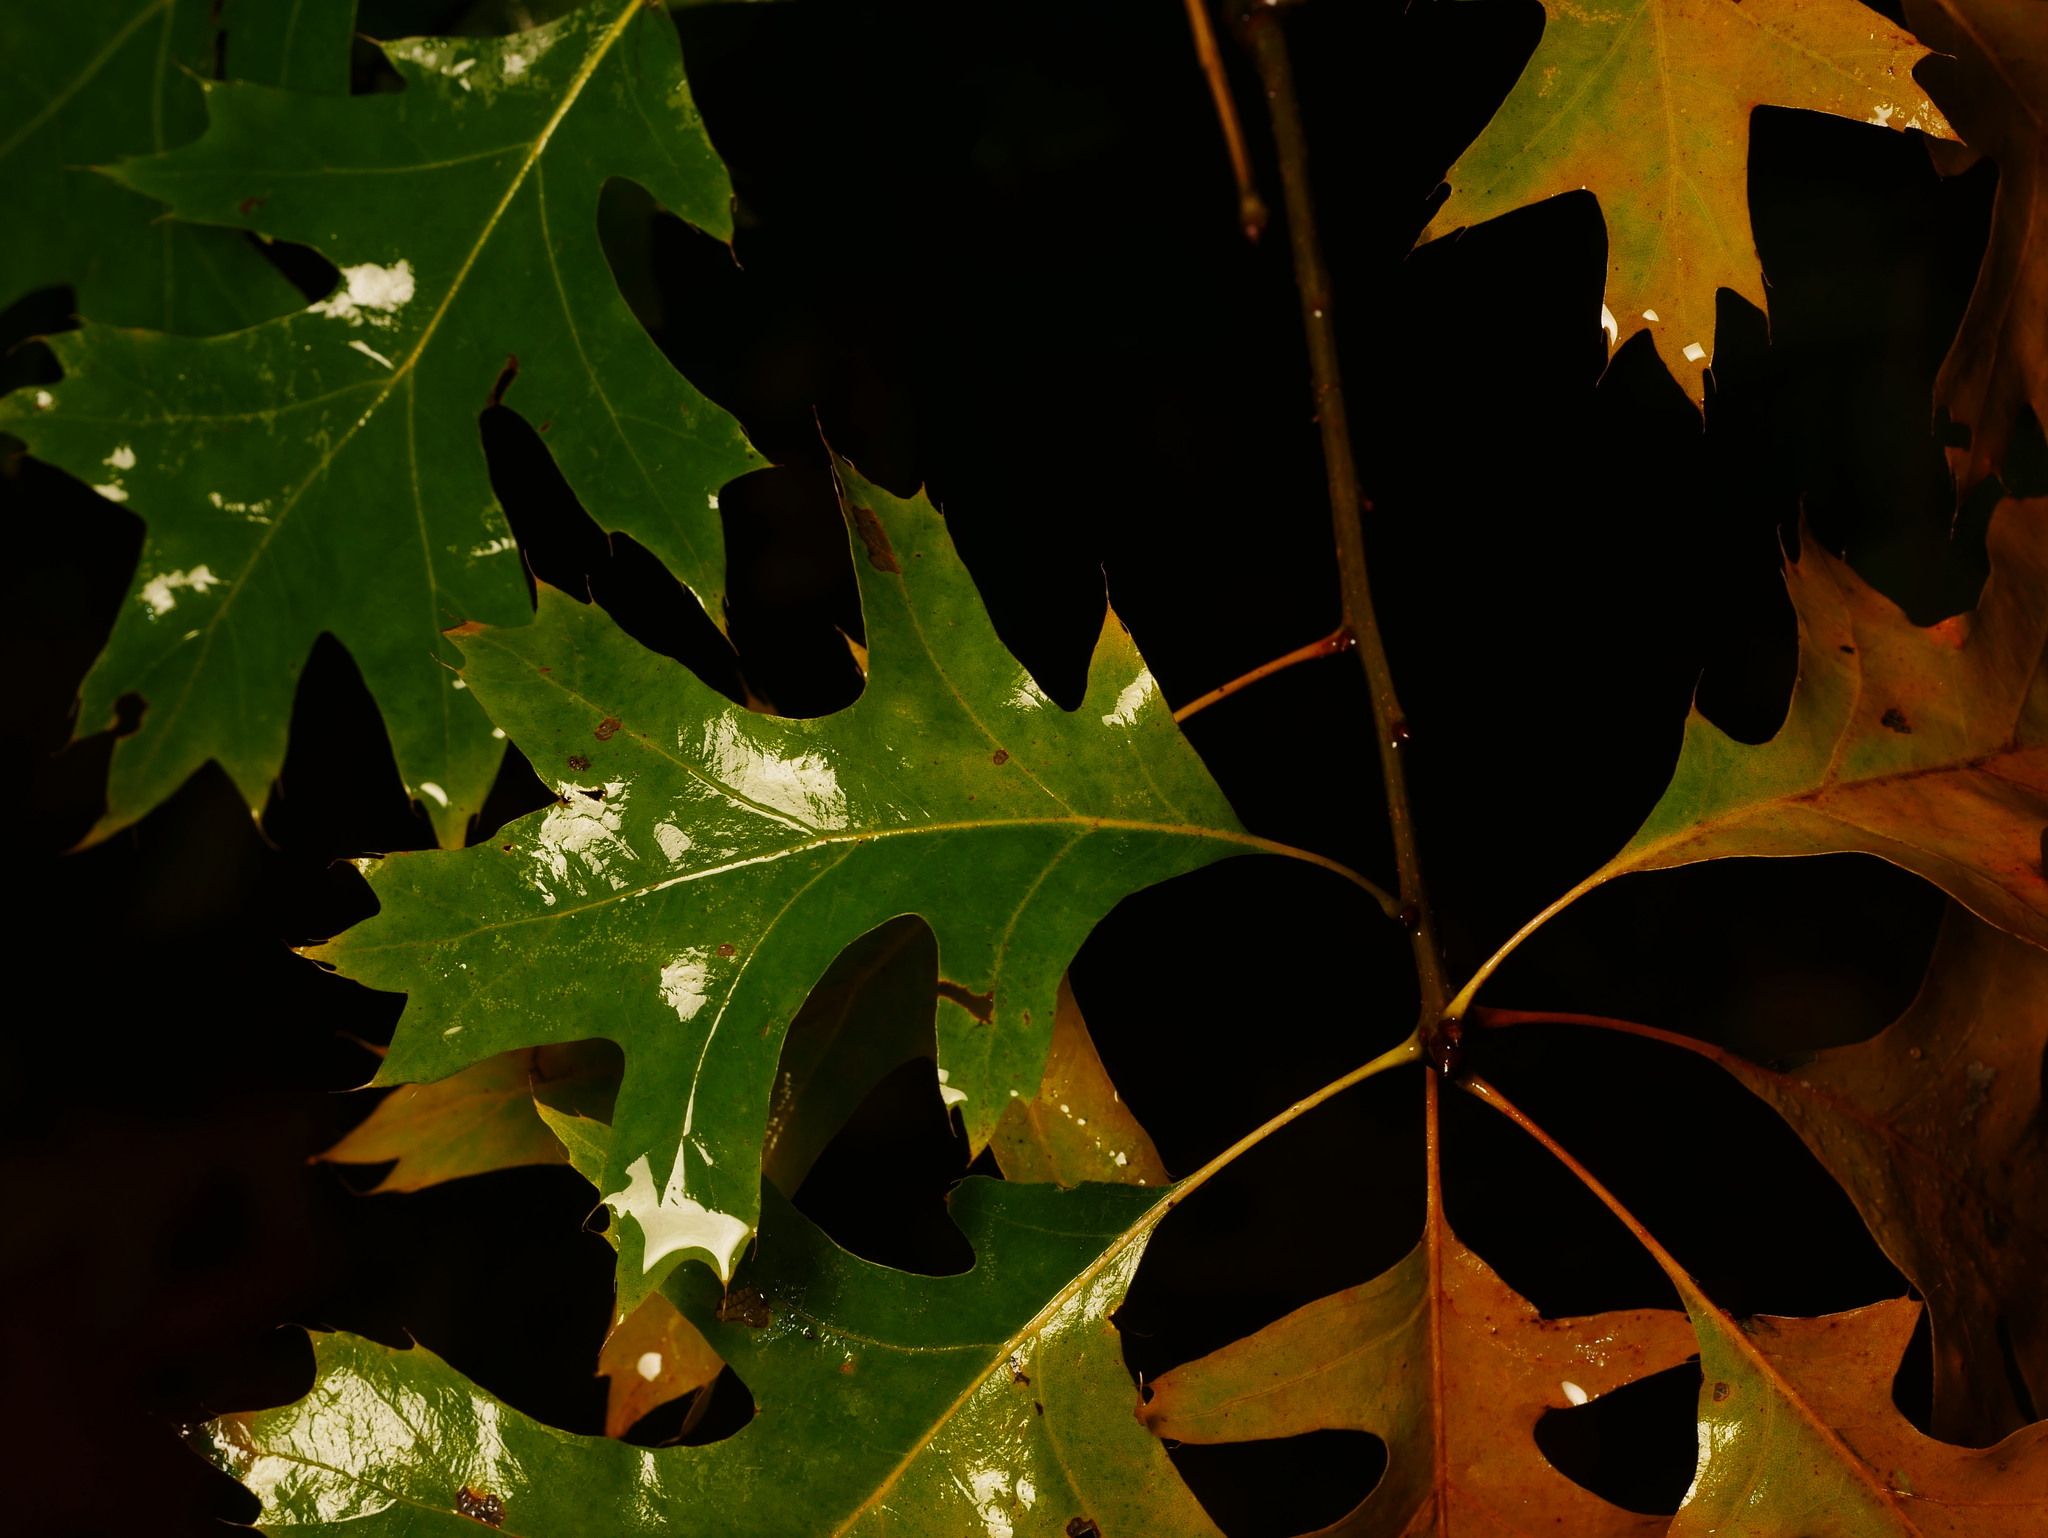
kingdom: Plantae
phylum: Tracheophyta
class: Magnoliopsida
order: Fagales
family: Fagaceae
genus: Quercus
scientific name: Quercus rubra
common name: Red oak
